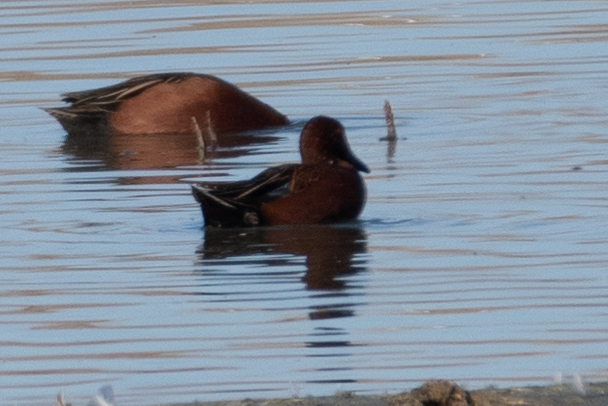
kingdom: Animalia
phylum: Chordata
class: Aves
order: Anseriformes
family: Anatidae
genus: Spatula
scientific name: Spatula cyanoptera
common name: Cinnamon teal
